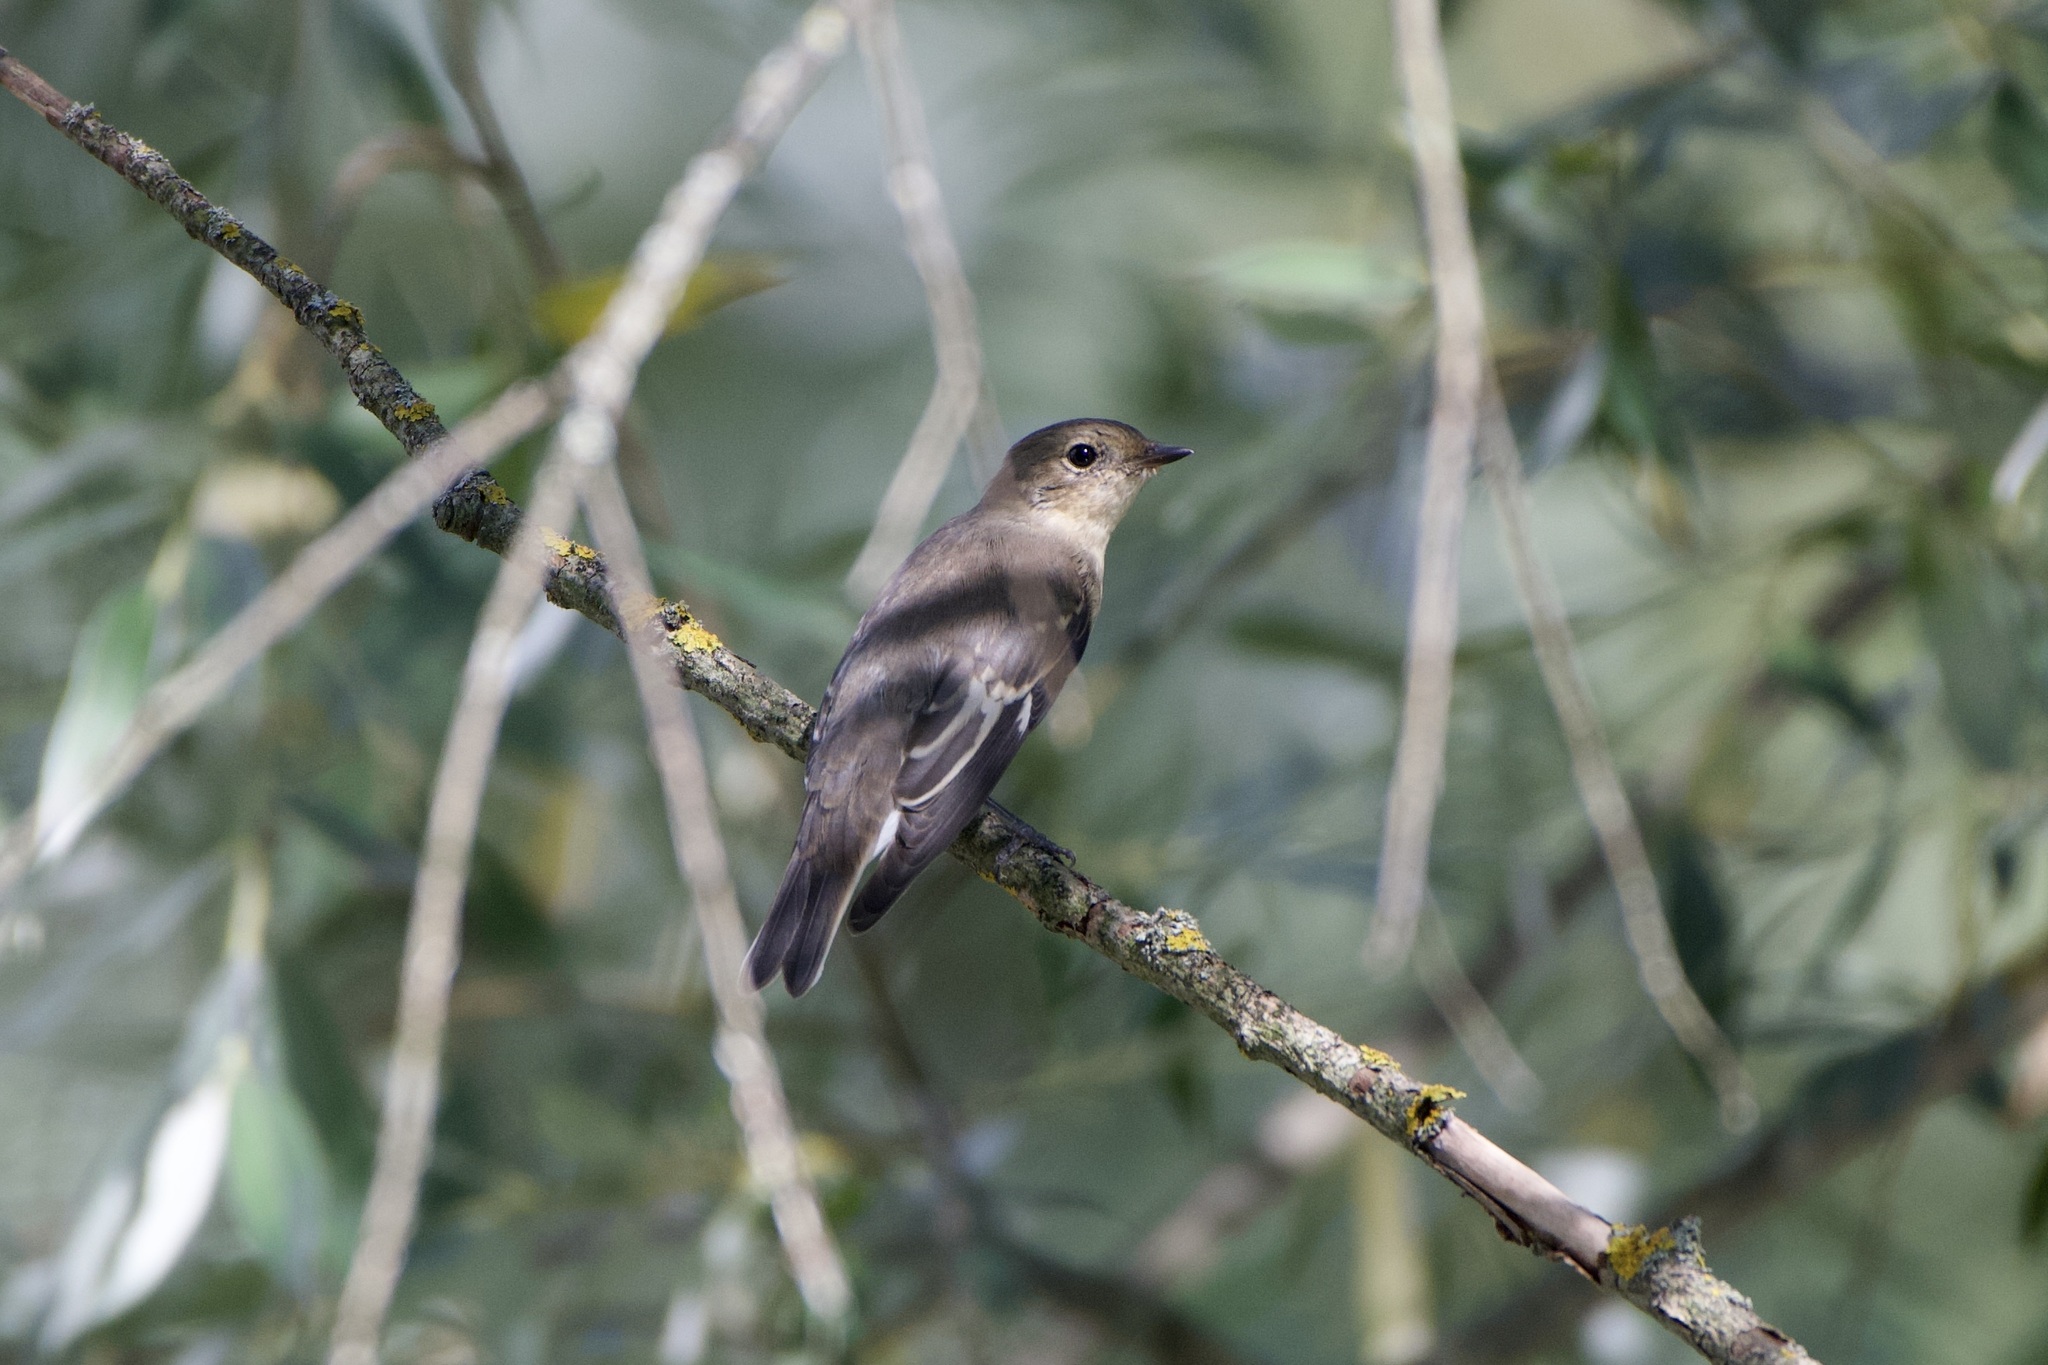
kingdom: Animalia
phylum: Chordata
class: Aves
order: Passeriformes
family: Muscicapidae
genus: Ficedula
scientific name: Ficedula albicollis
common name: Collared flycatcher
